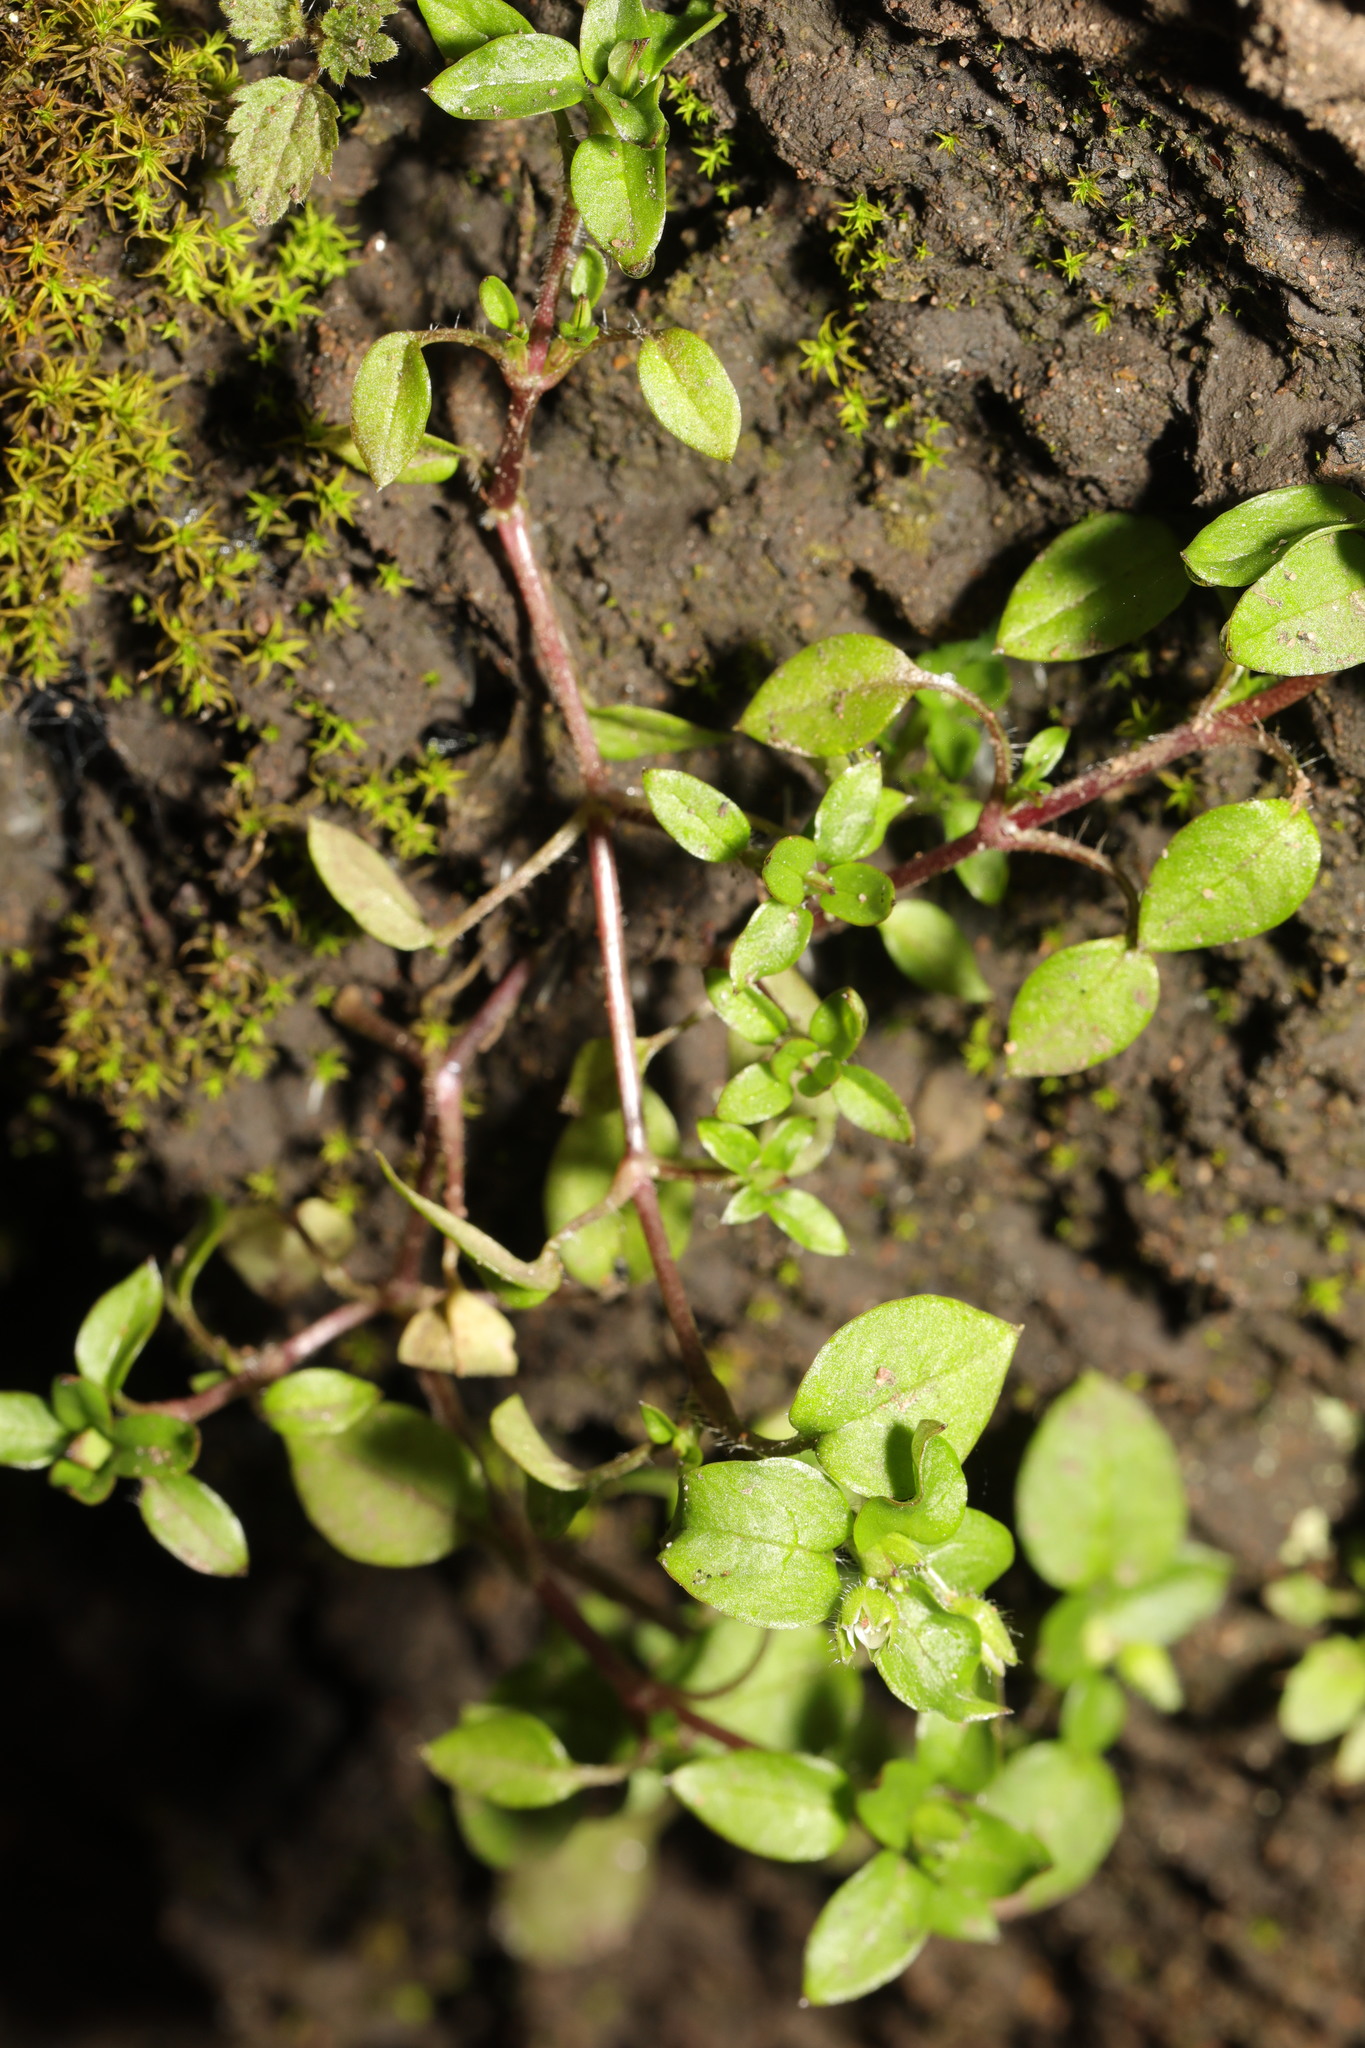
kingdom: Plantae
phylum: Tracheophyta
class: Magnoliopsida
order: Caryophyllales
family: Caryophyllaceae
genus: Stellaria
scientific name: Stellaria media
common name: Common chickweed
